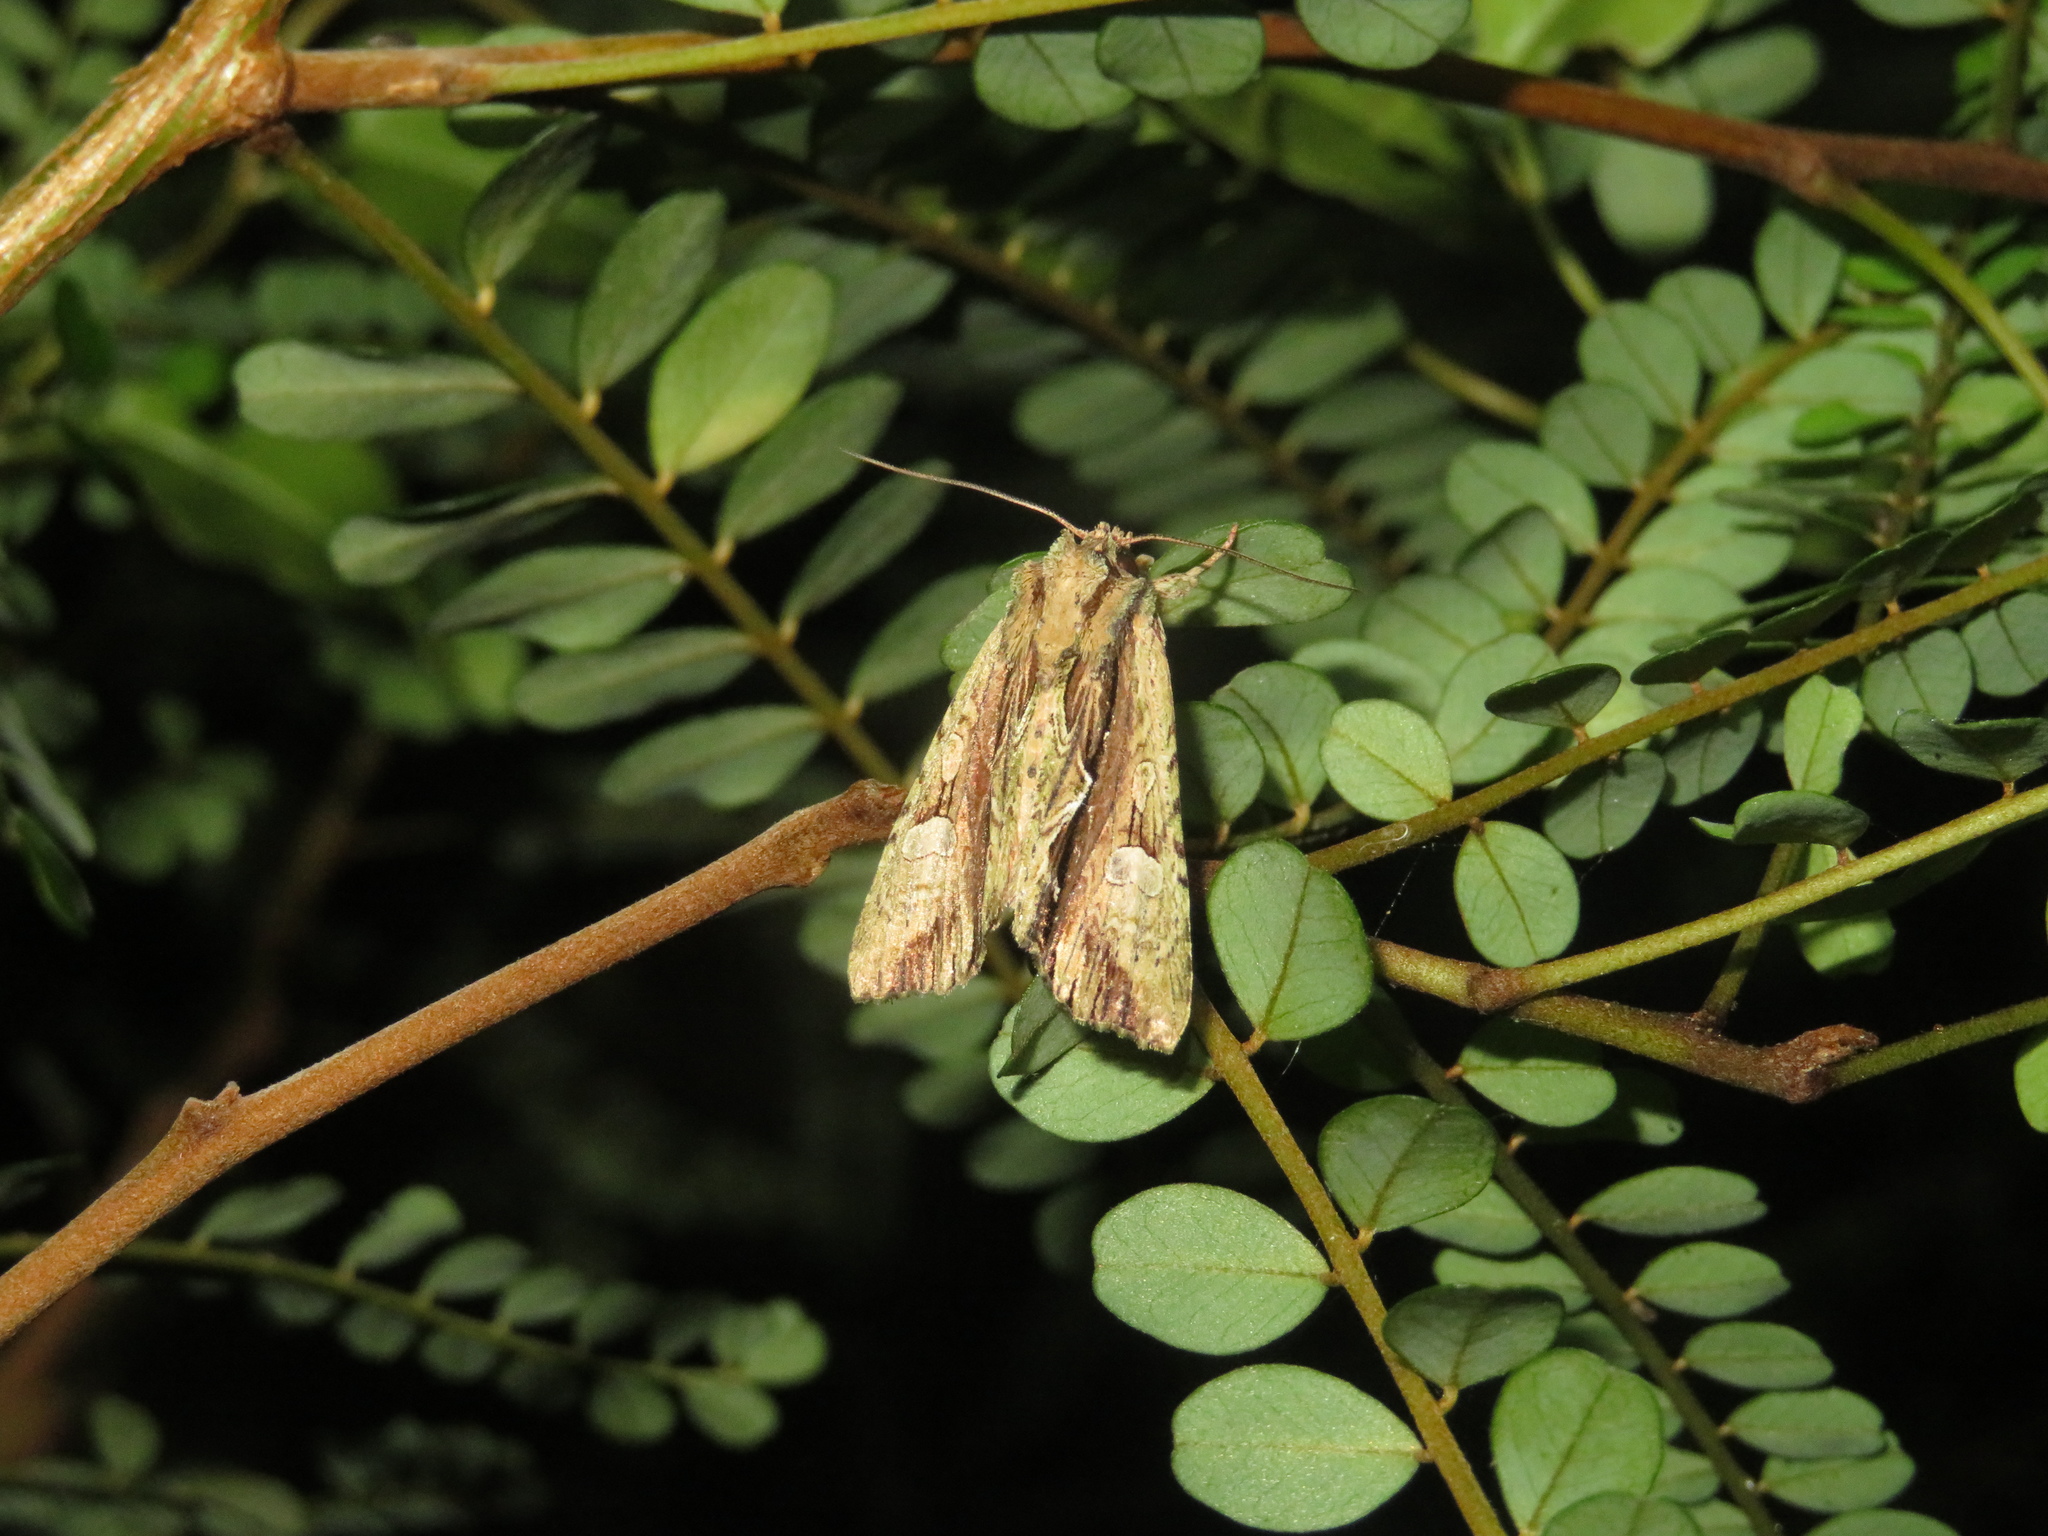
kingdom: Animalia
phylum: Arthropoda
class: Insecta
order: Lepidoptera
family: Noctuidae
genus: Meterana
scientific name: Meterana decorata
